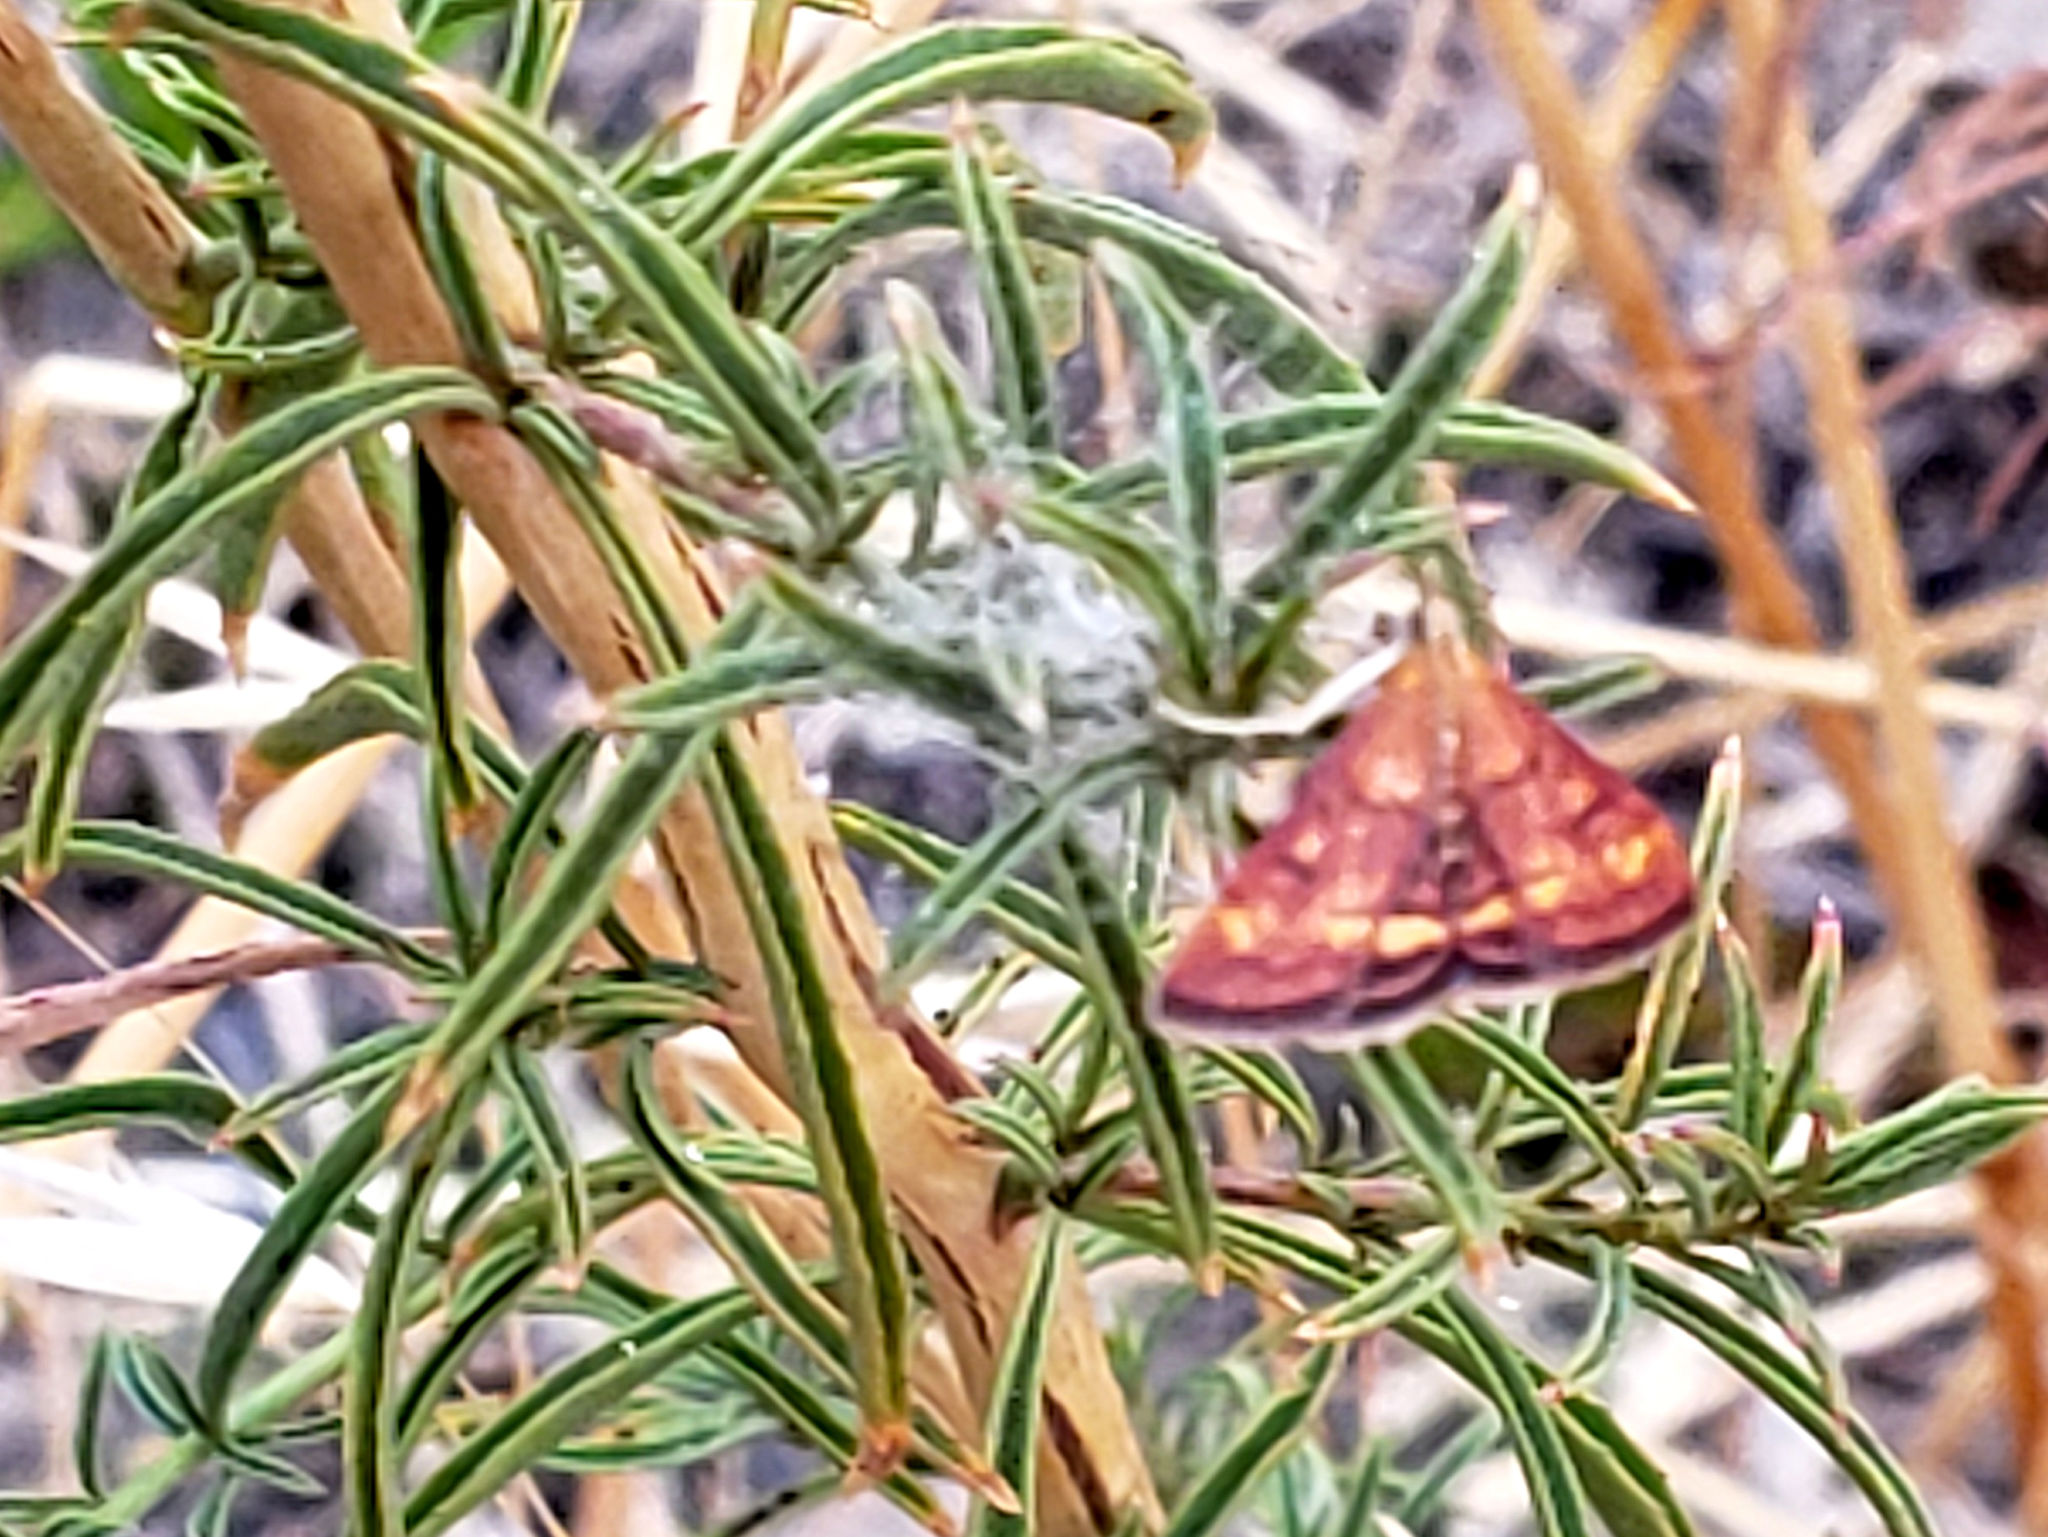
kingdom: Animalia
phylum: Arthropoda
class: Insecta
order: Lepidoptera
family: Crambidae
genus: Pyrausta
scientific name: Pyrausta californicalis
